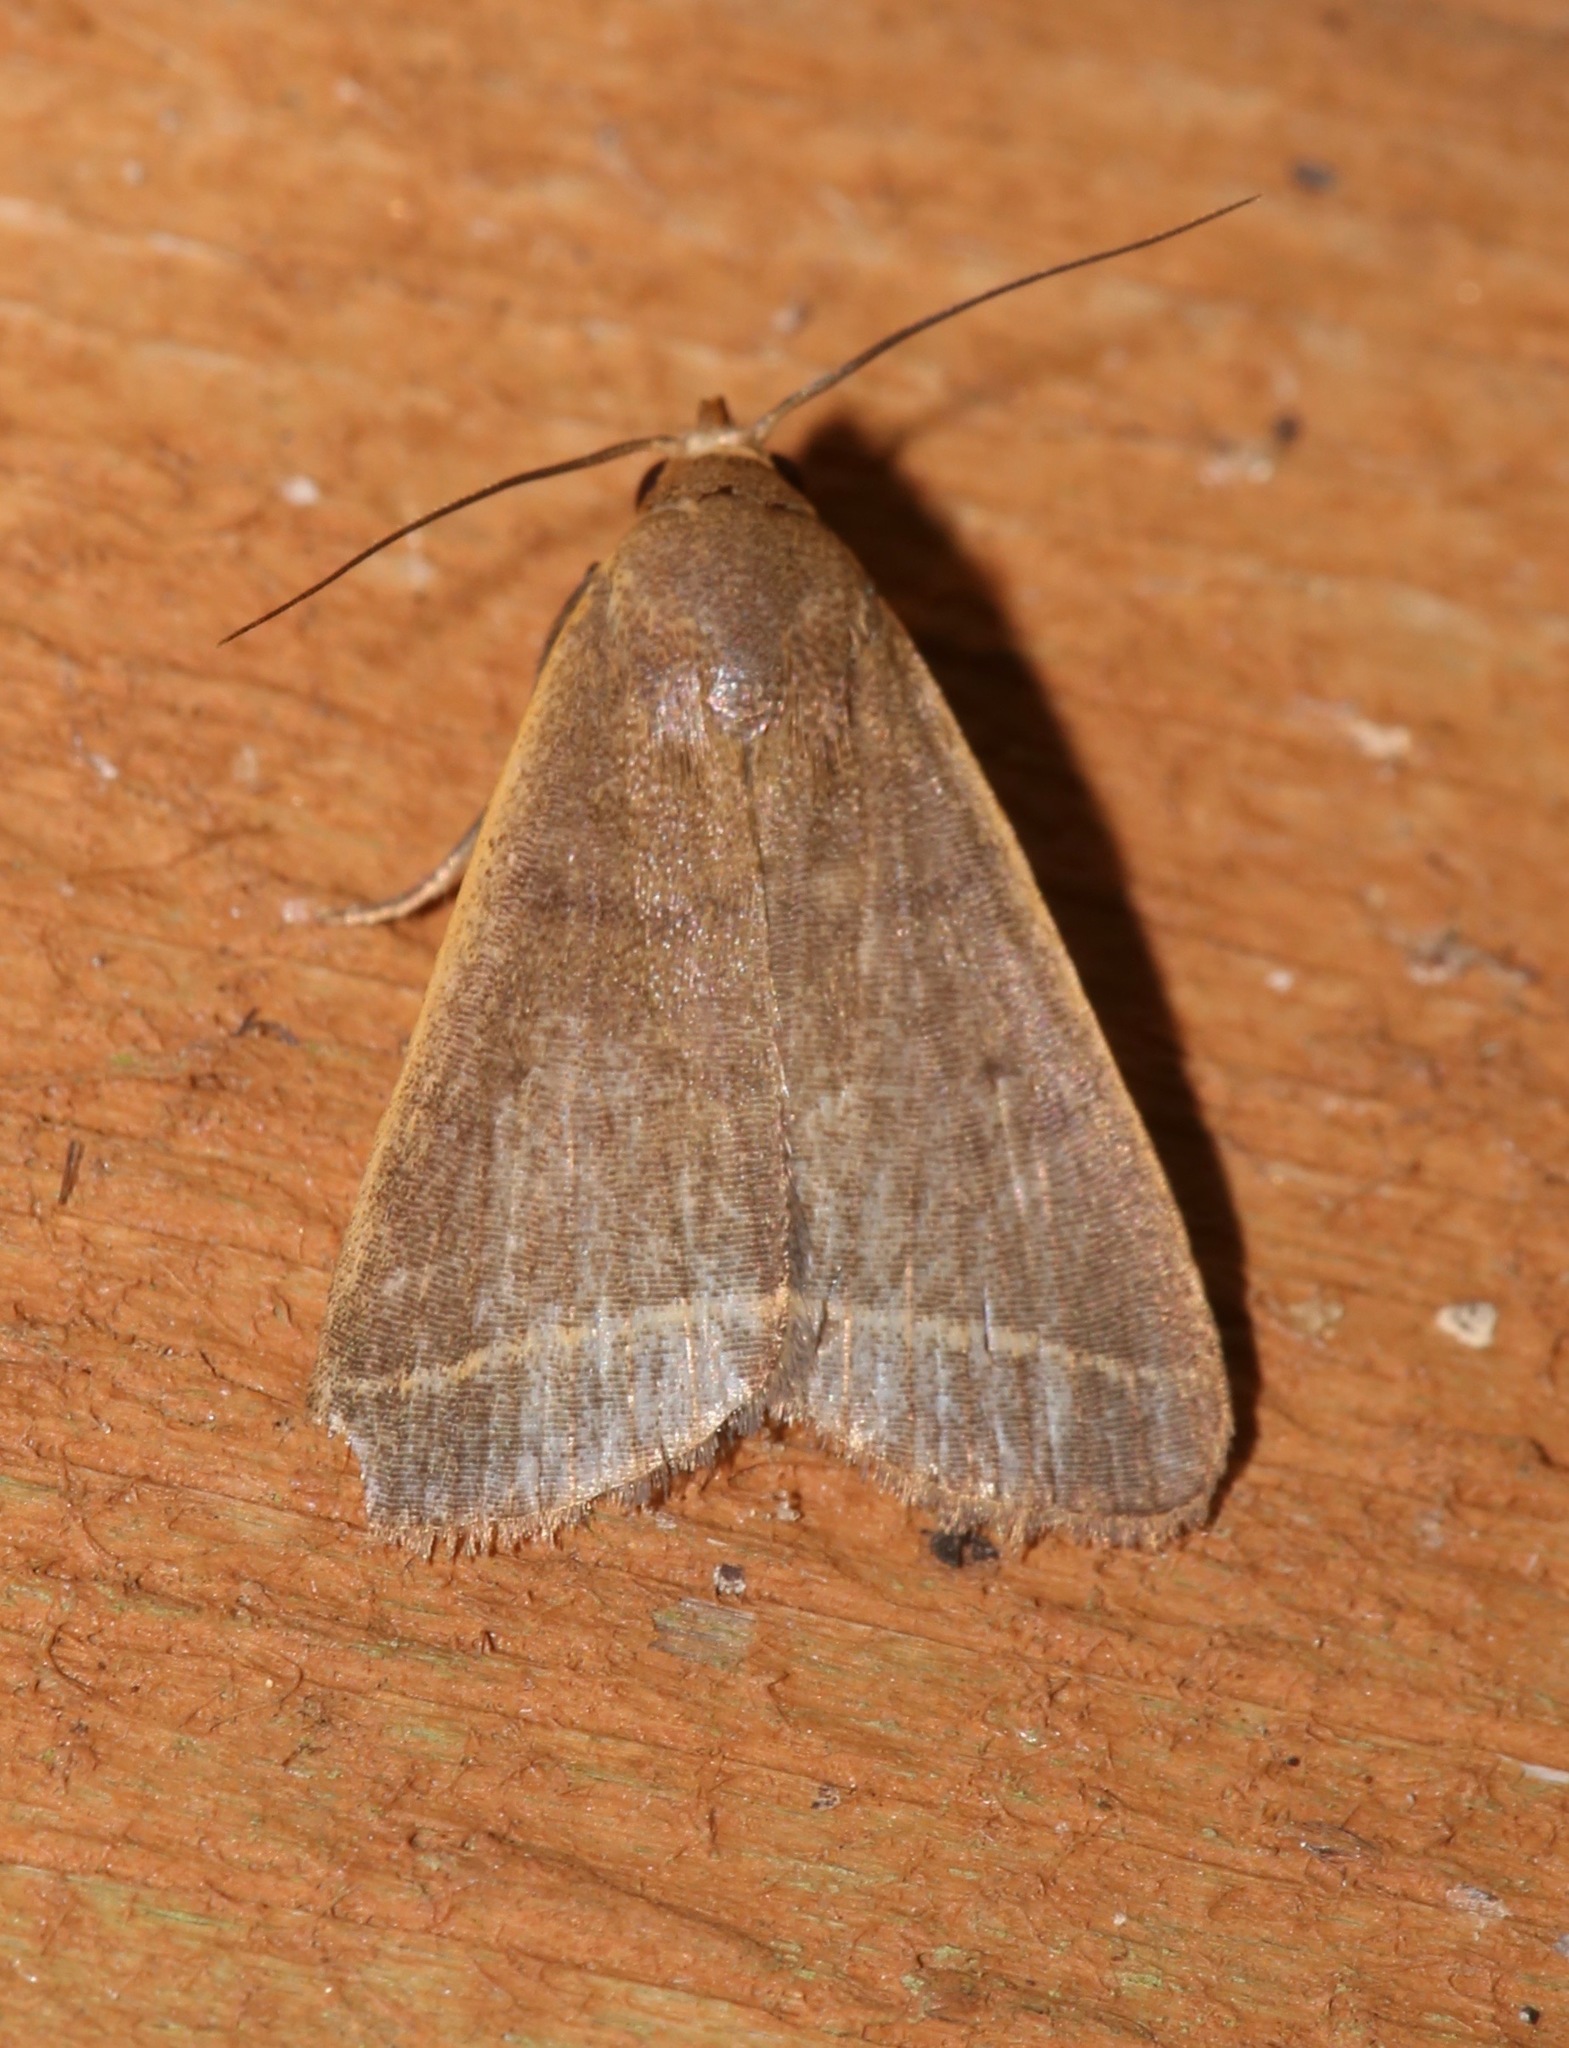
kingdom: Animalia
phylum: Arthropoda
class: Insecta
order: Lepidoptera
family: Erebidae
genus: Simplicia
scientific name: Simplicia cornicalis
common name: Tiki hut litter moth
